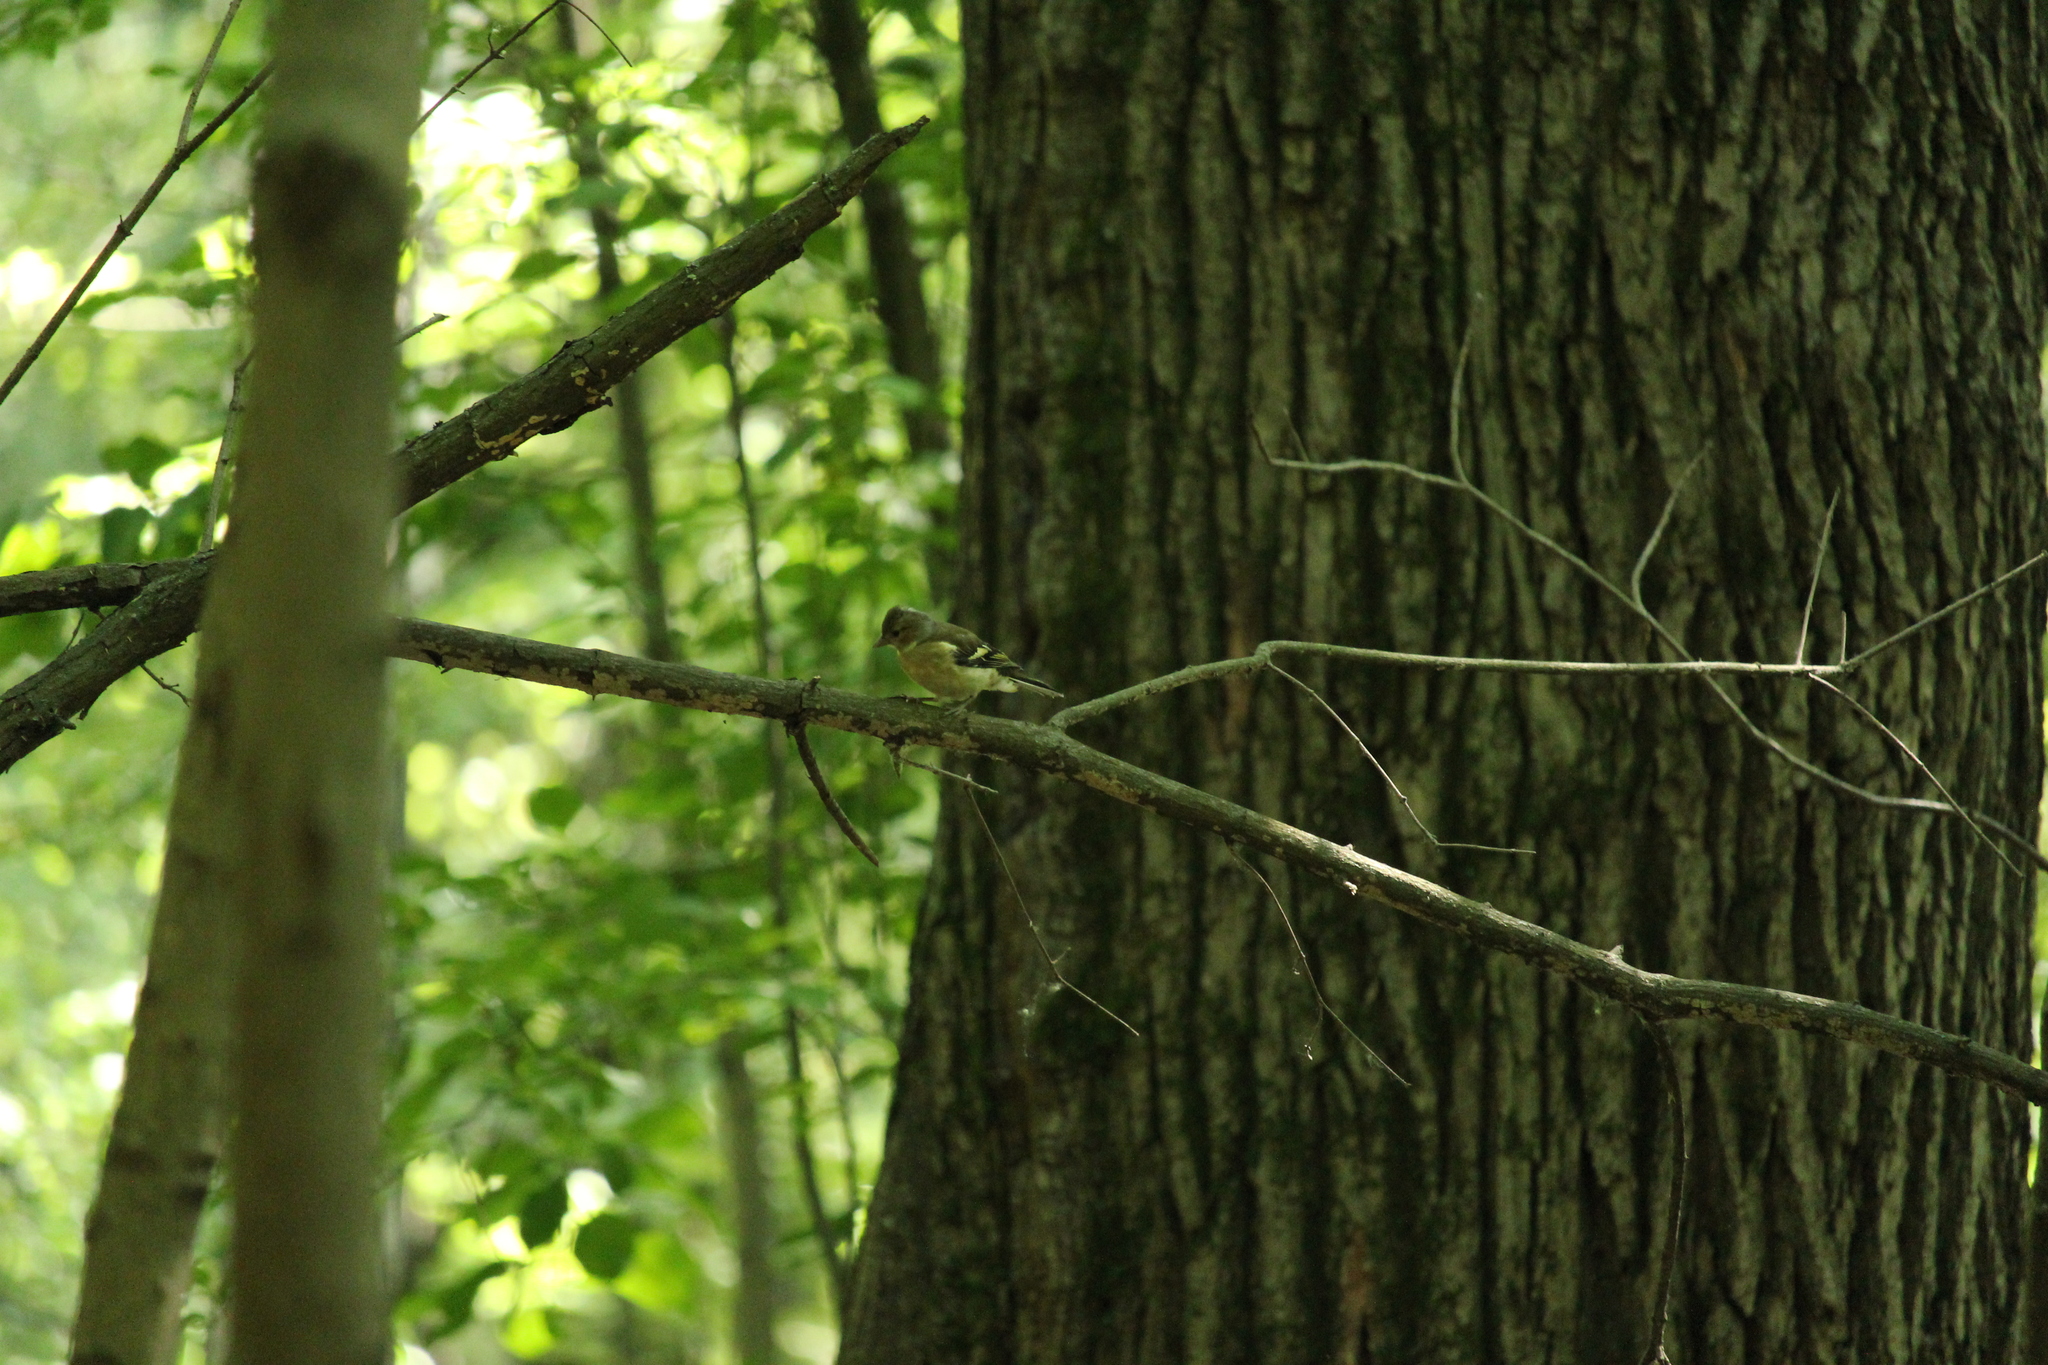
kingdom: Animalia
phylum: Chordata
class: Aves
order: Passeriformes
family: Fringillidae
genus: Fringilla
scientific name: Fringilla coelebs
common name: Common chaffinch
